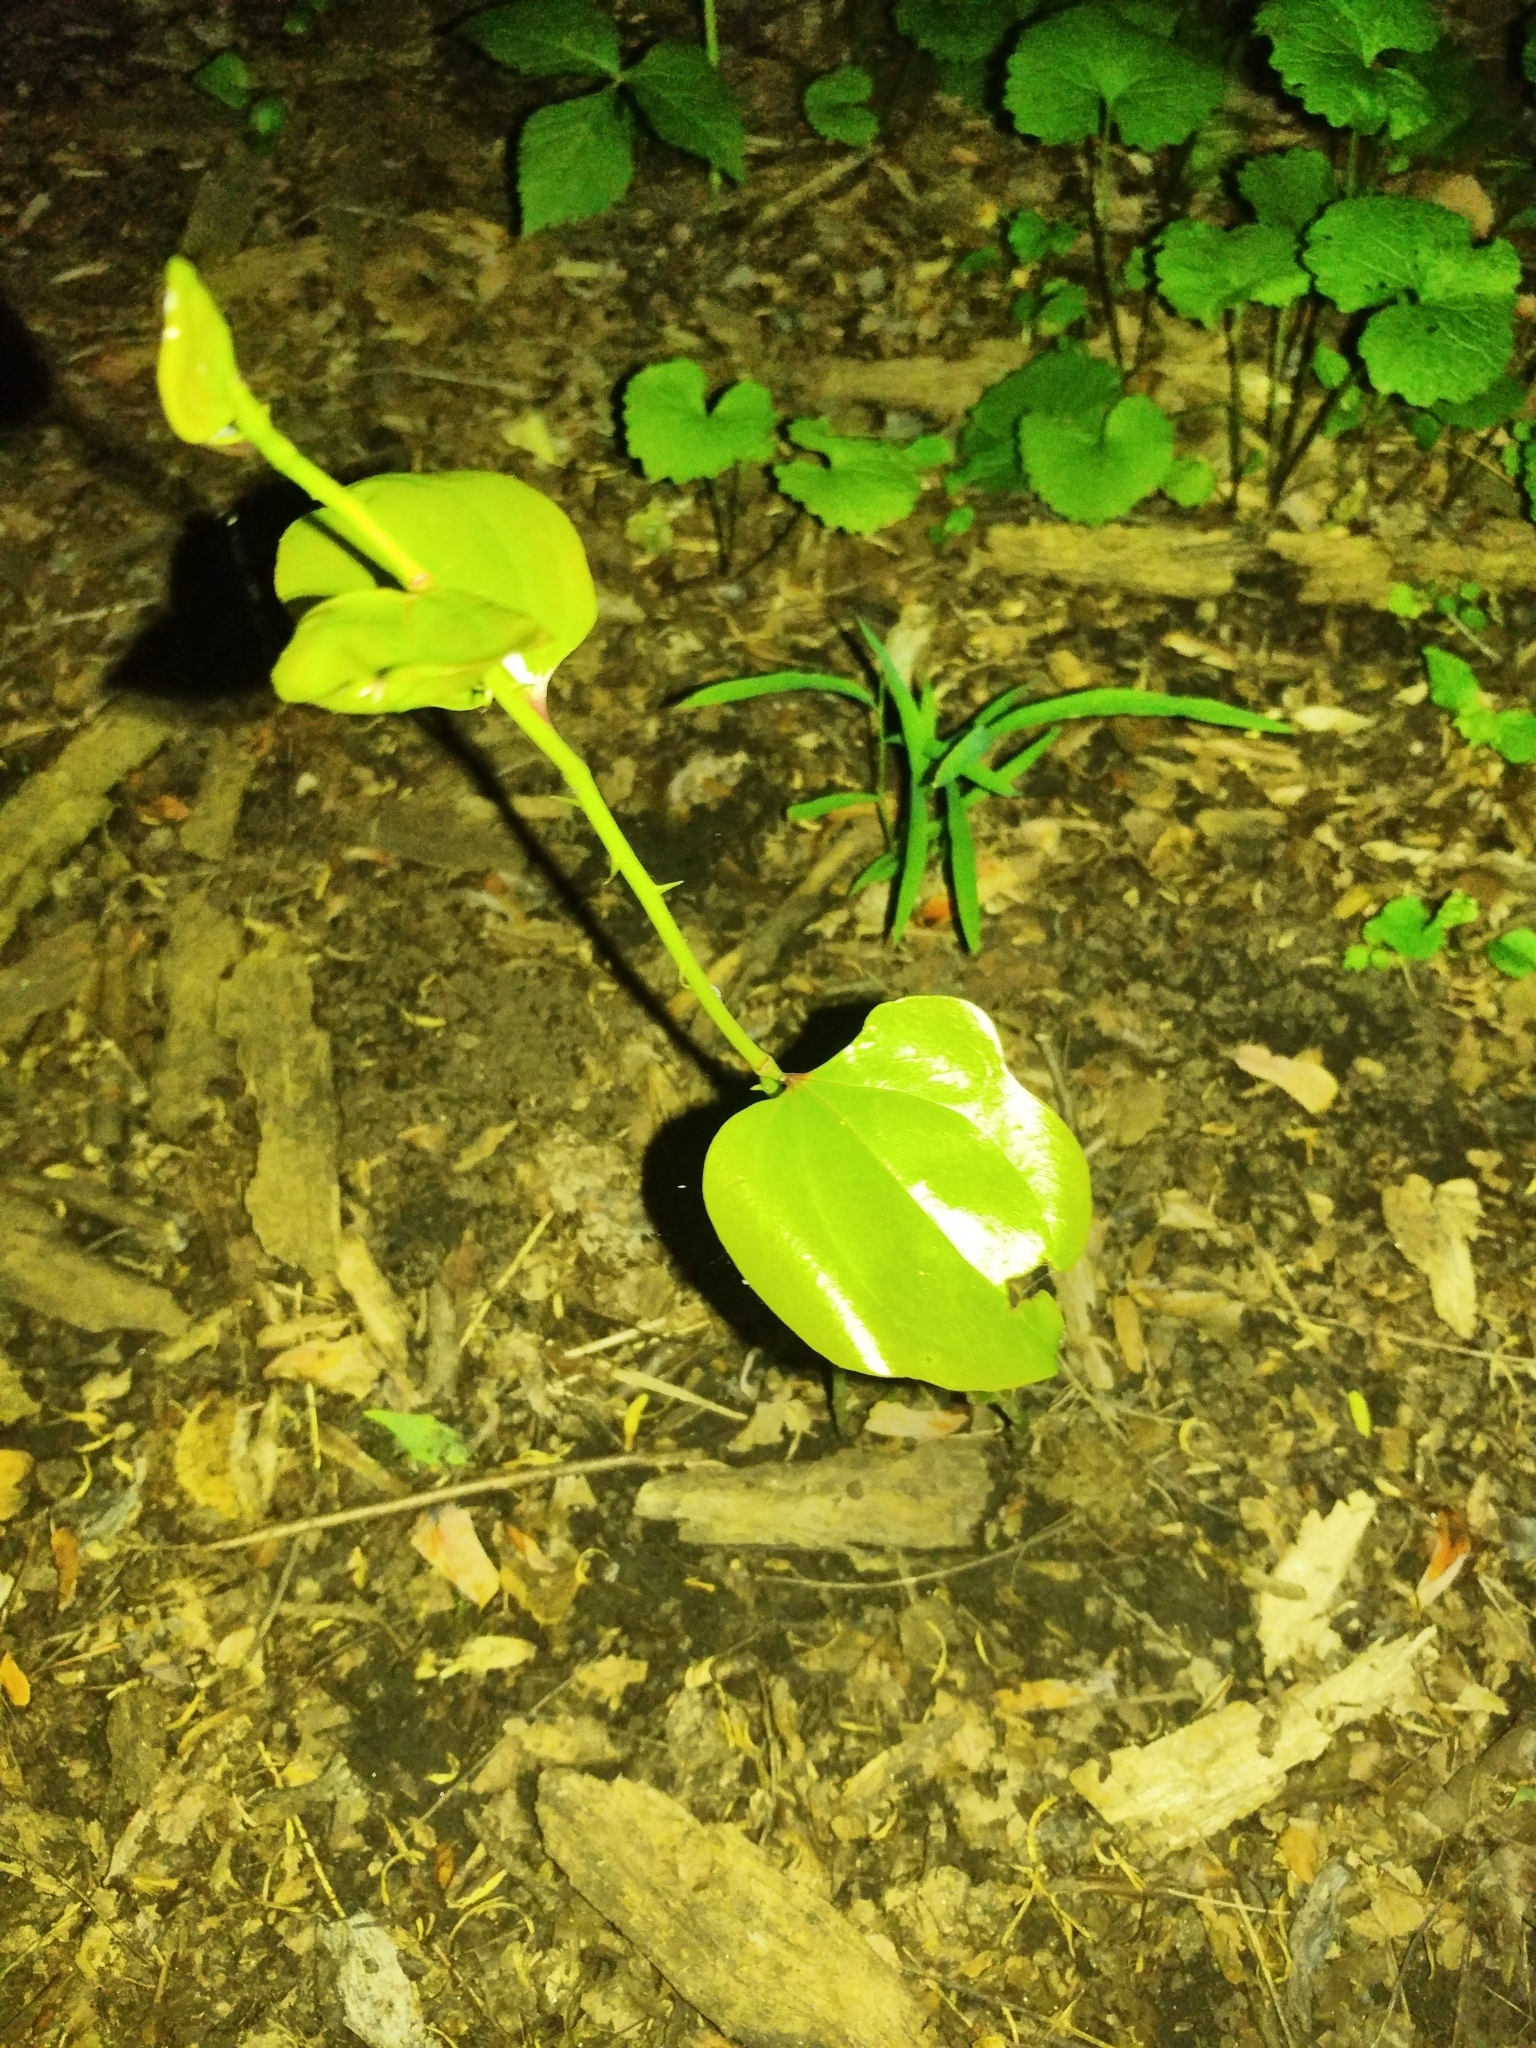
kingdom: Plantae
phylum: Tracheophyta
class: Liliopsida
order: Liliales
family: Smilacaceae
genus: Smilax
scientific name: Smilax rotundifolia
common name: Bullbriar
